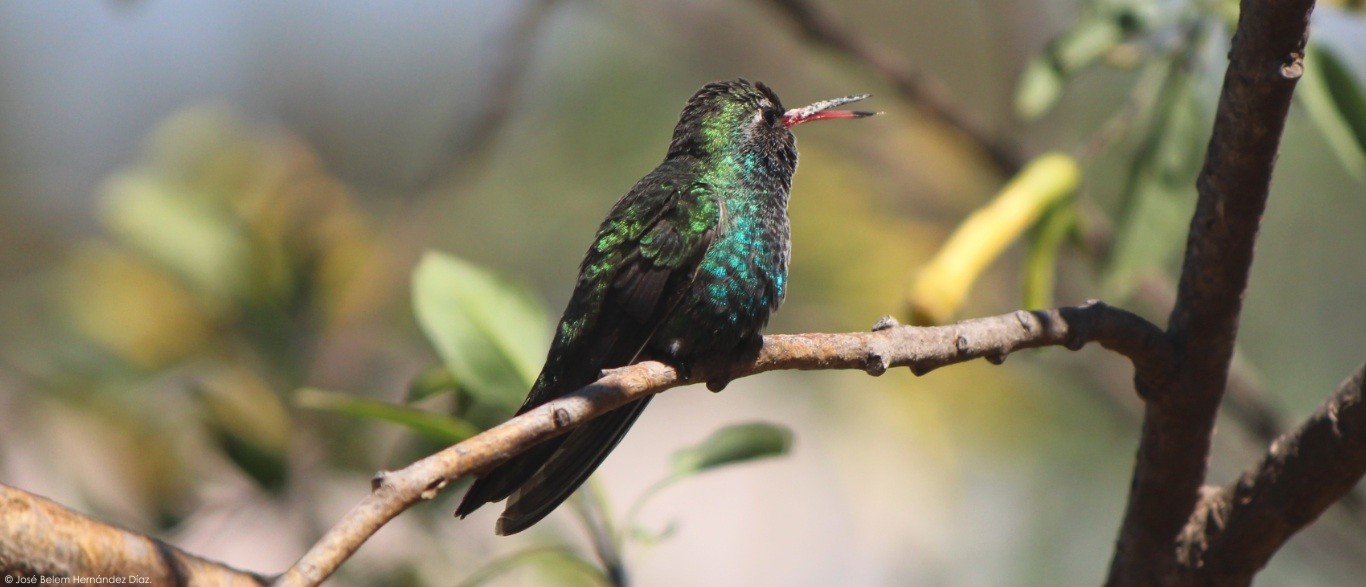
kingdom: Animalia
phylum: Chordata
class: Aves
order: Apodiformes
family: Trochilidae
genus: Cynanthus
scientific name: Cynanthus latirostris
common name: Broad-billed hummingbird
